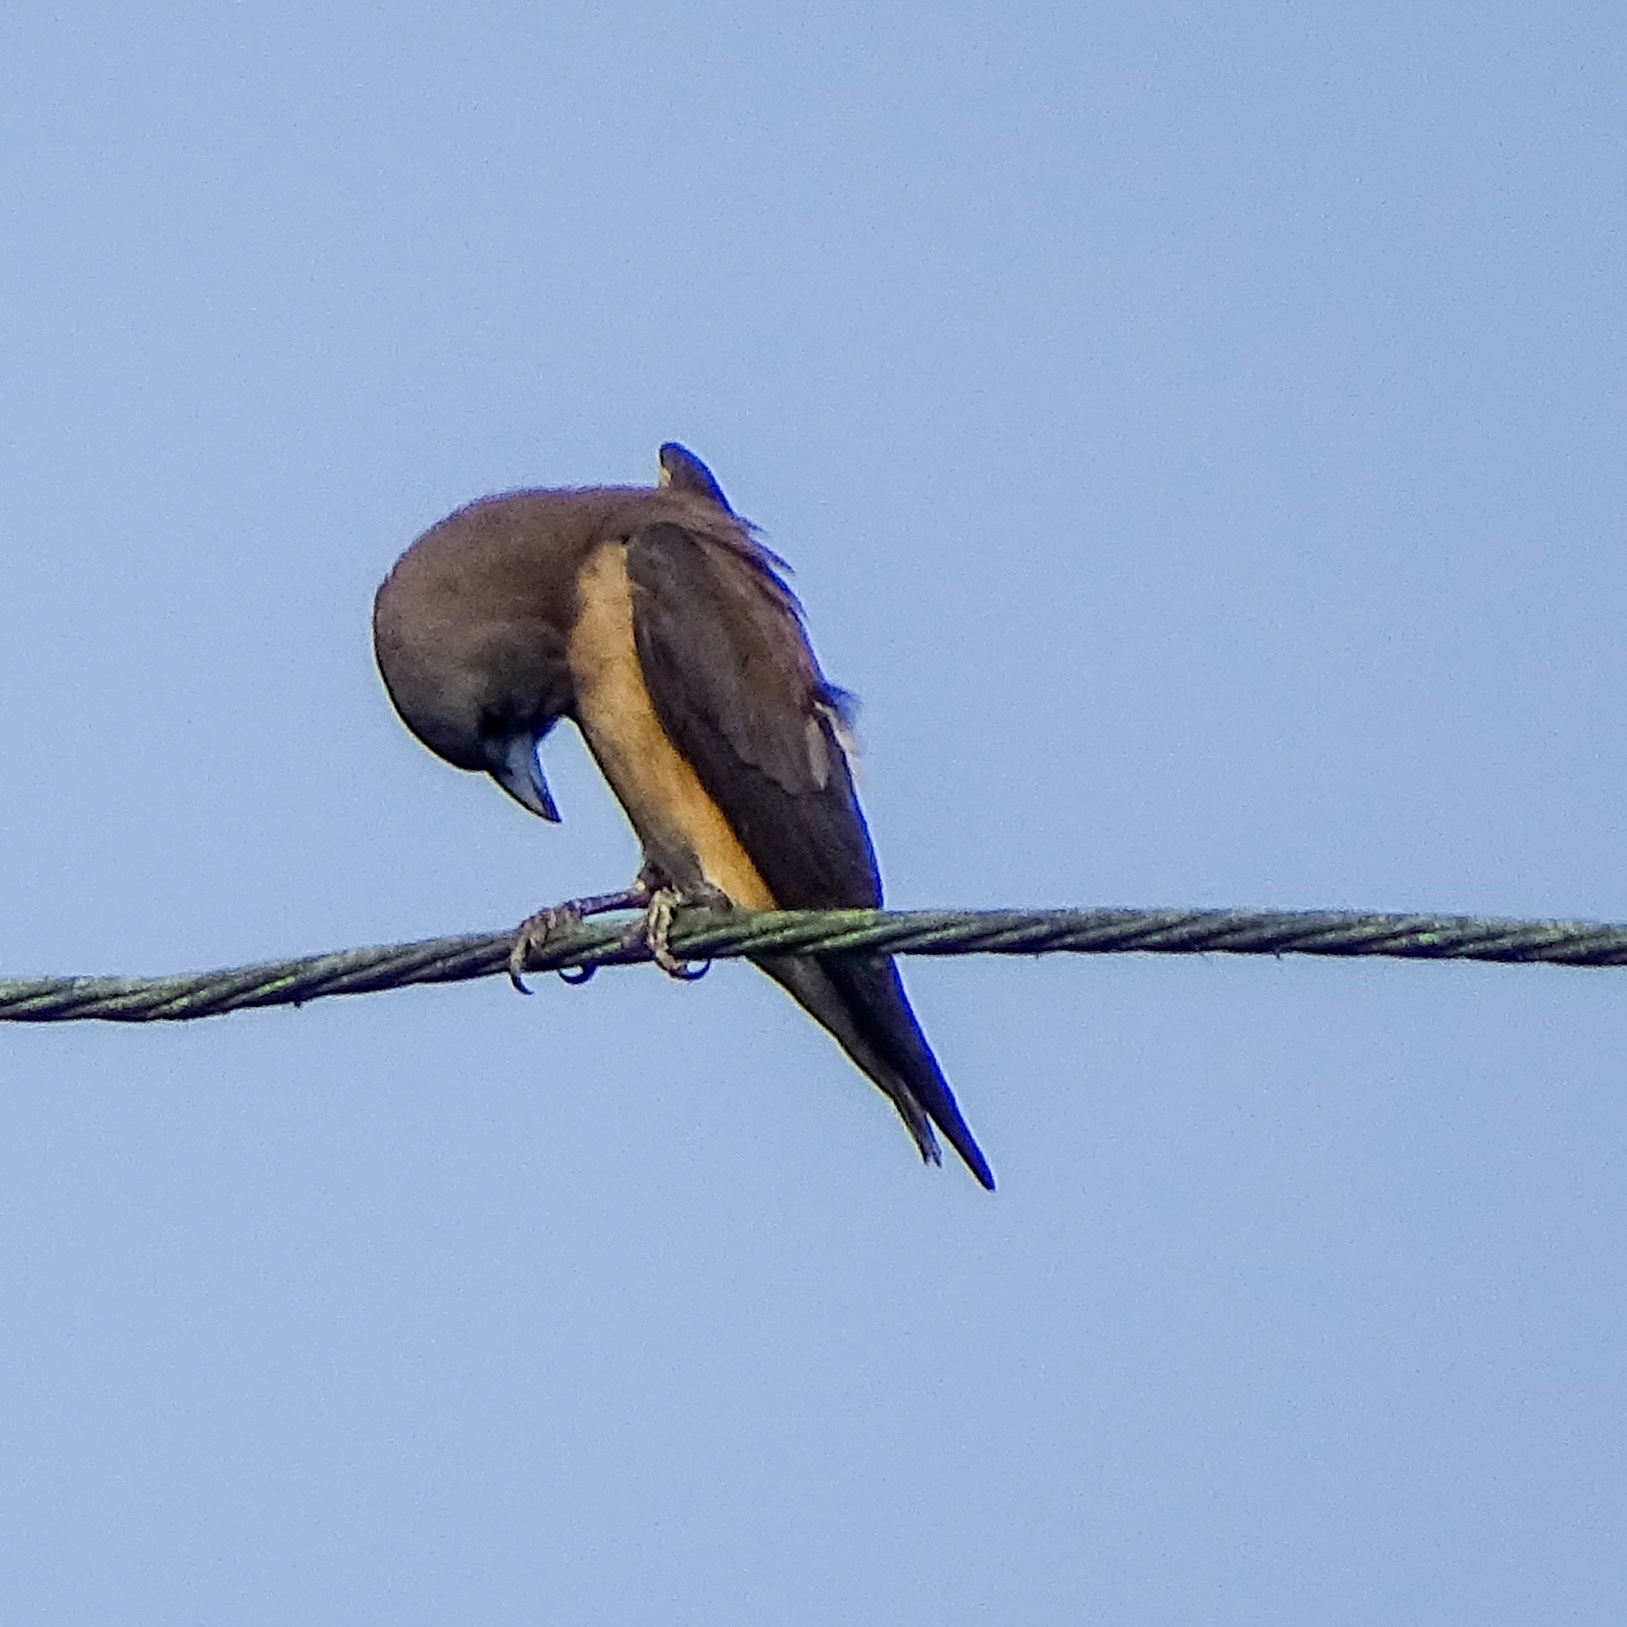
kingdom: Animalia
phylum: Chordata
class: Aves
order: Passeriformes
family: Artamidae
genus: Artamus
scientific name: Artamus fuscus
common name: Ashy woodswallow
